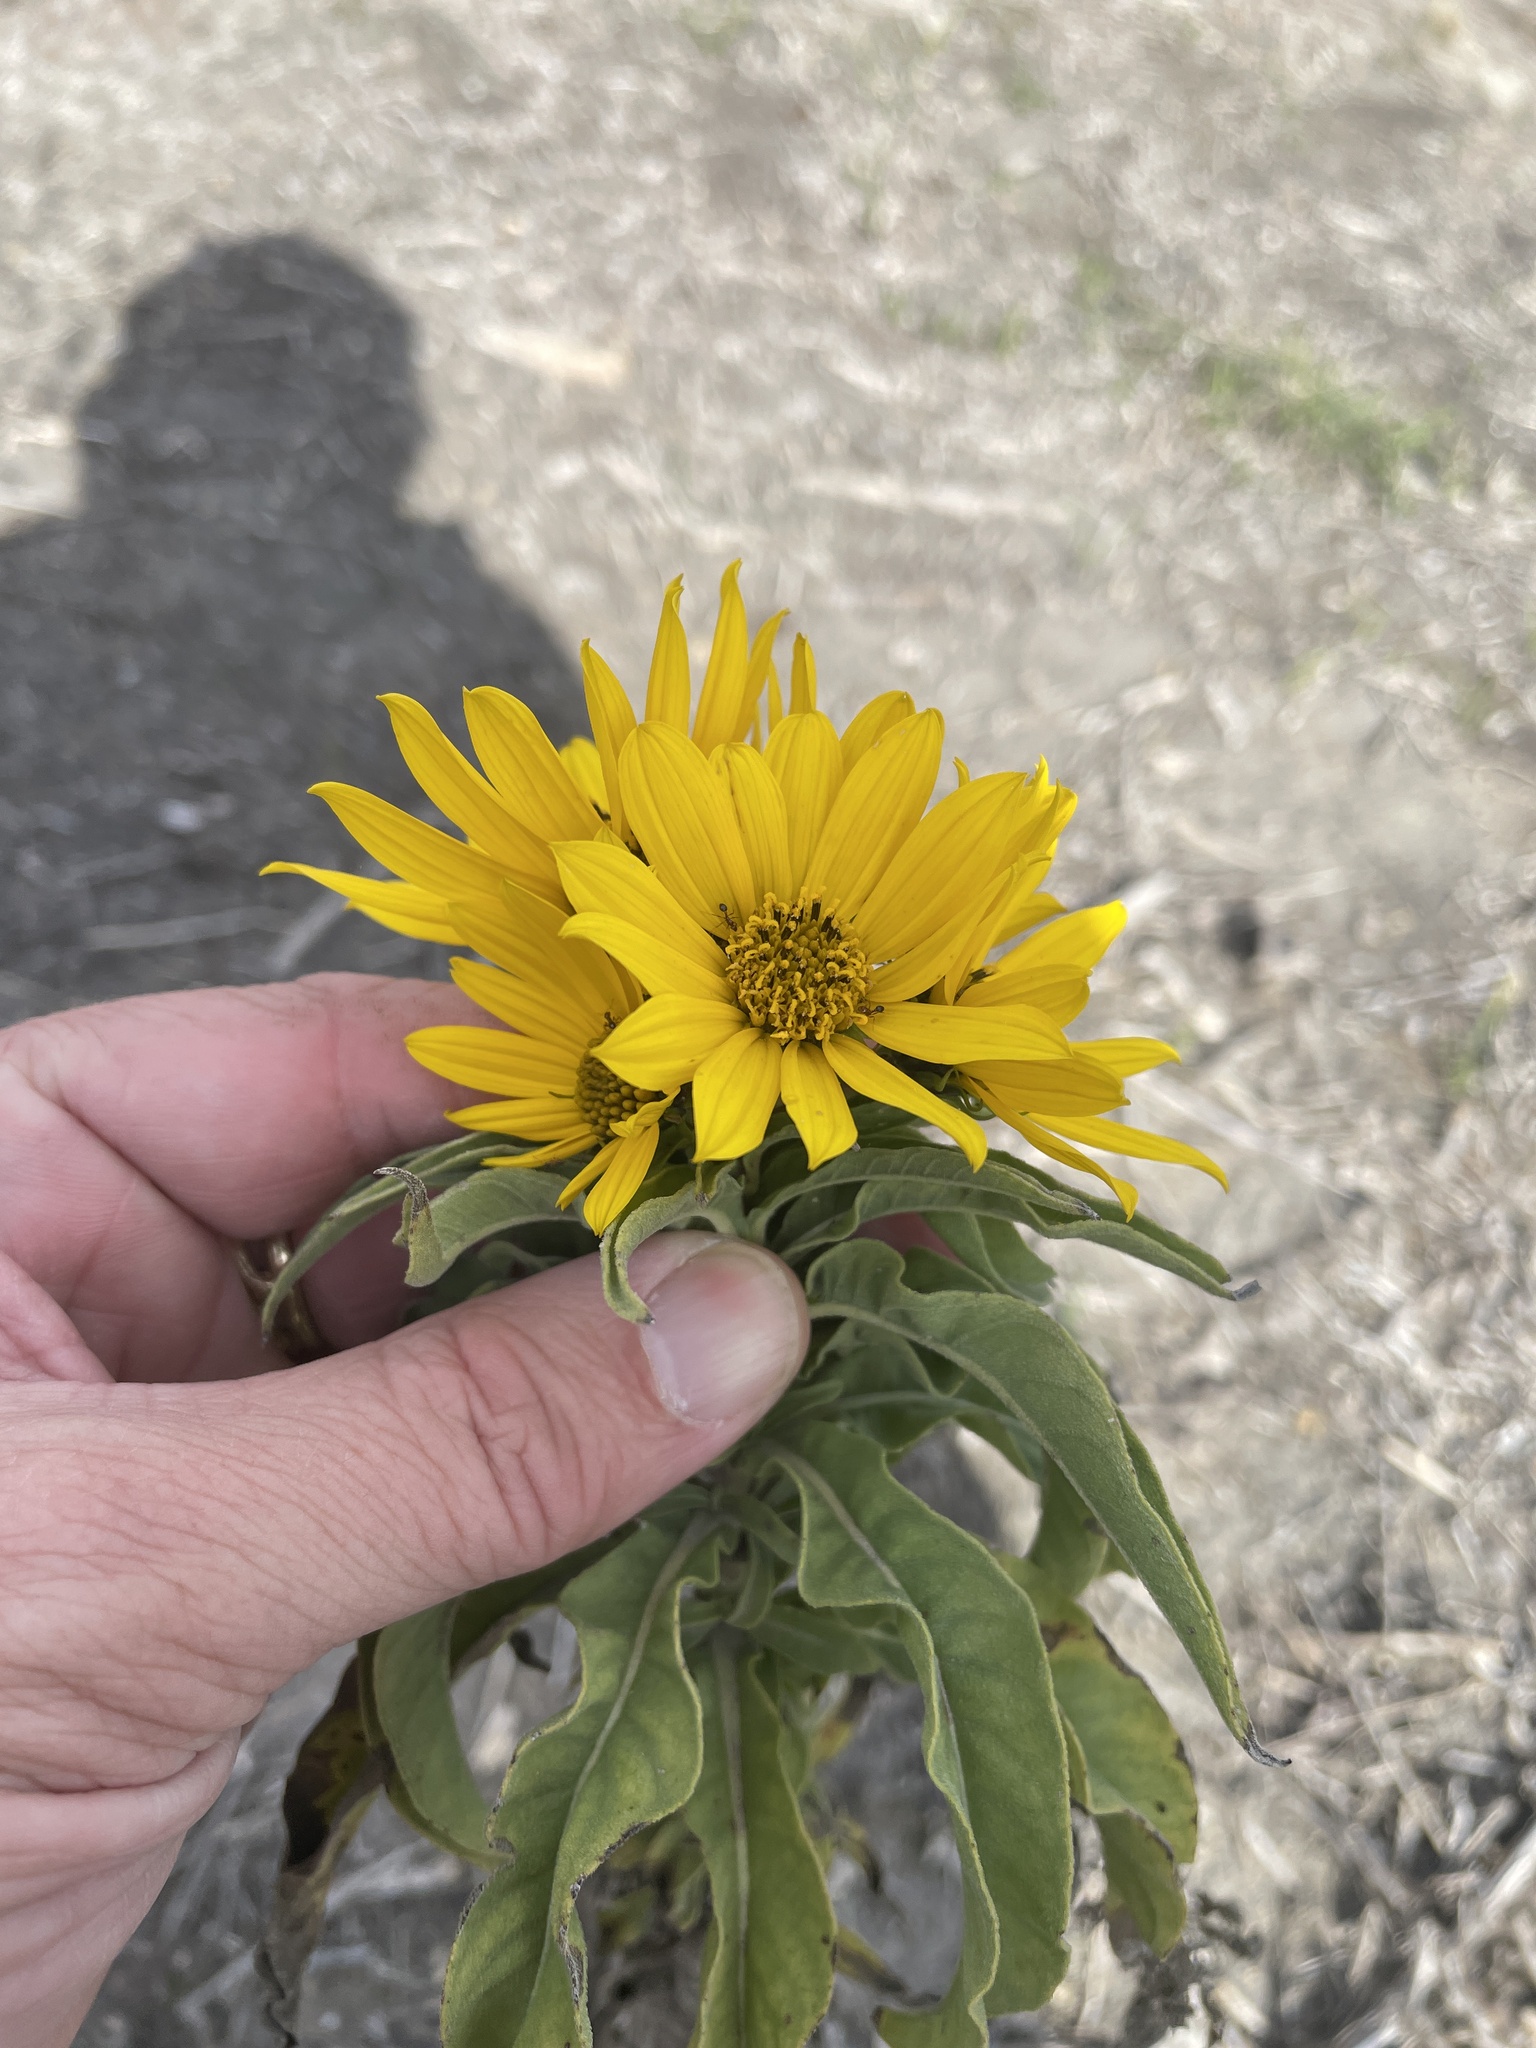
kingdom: Plantae
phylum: Tracheophyta
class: Magnoliopsida
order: Asterales
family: Asteraceae
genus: Helianthus
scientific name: Helianthus maximiliani
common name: Maximilian's sunflower
